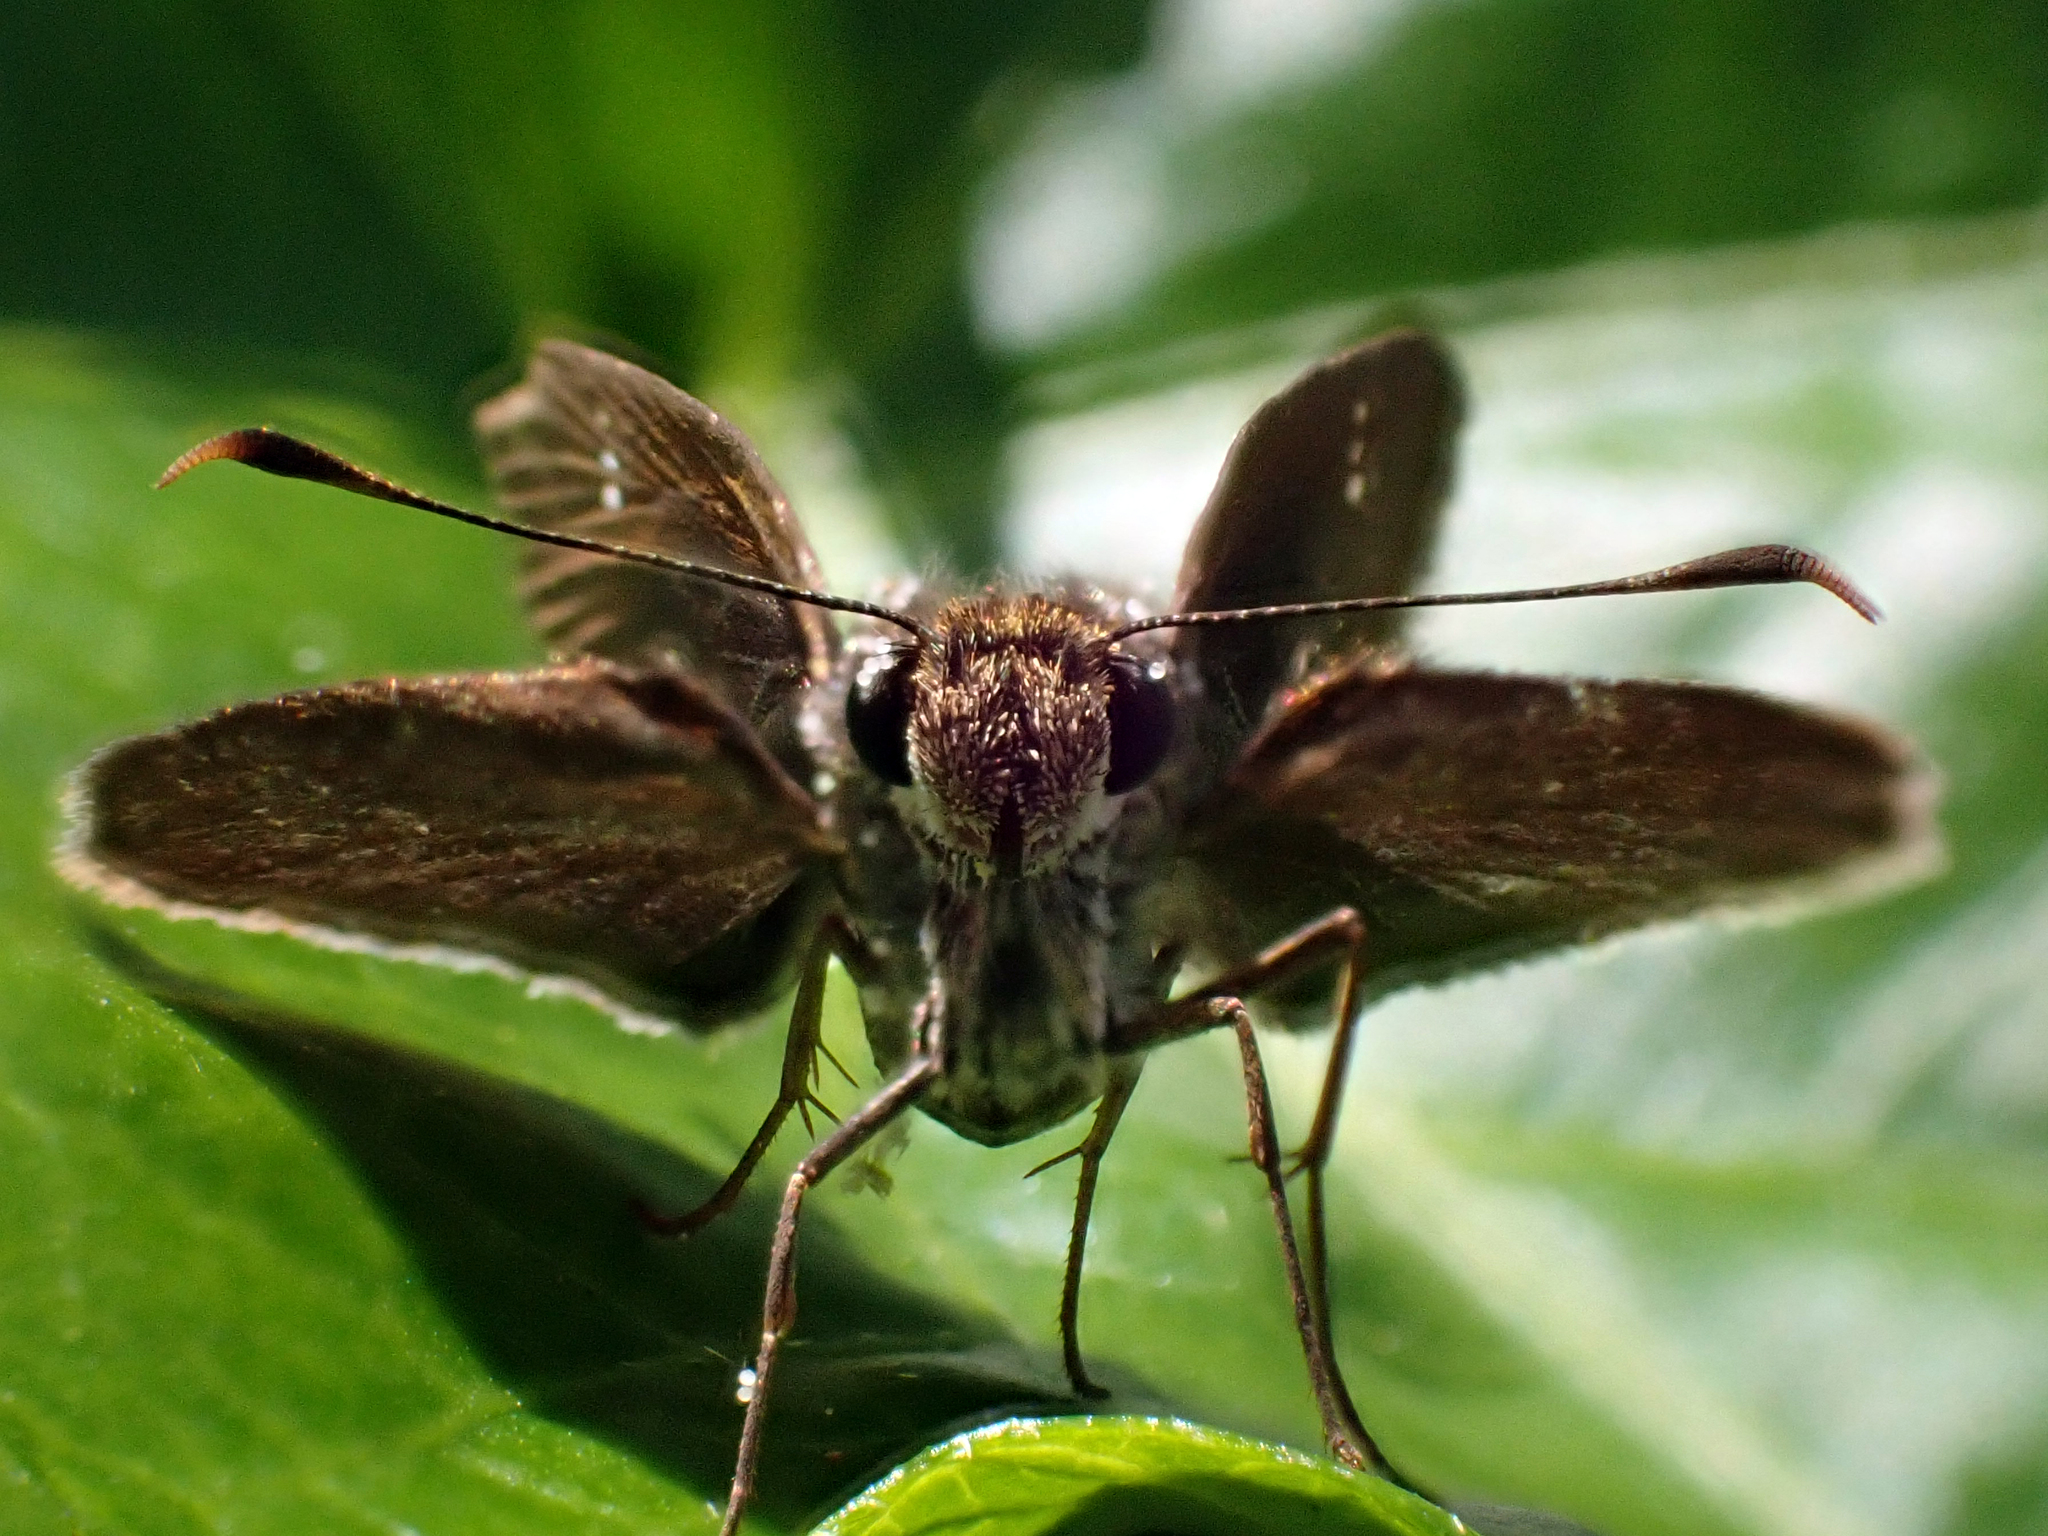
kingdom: Animalia
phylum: Arthropoda
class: Insecta
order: Lepidoptera
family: Hesperiidae
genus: Cymaenes
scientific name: Cymaenes tripunctus
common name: Dingy dotted skipper
